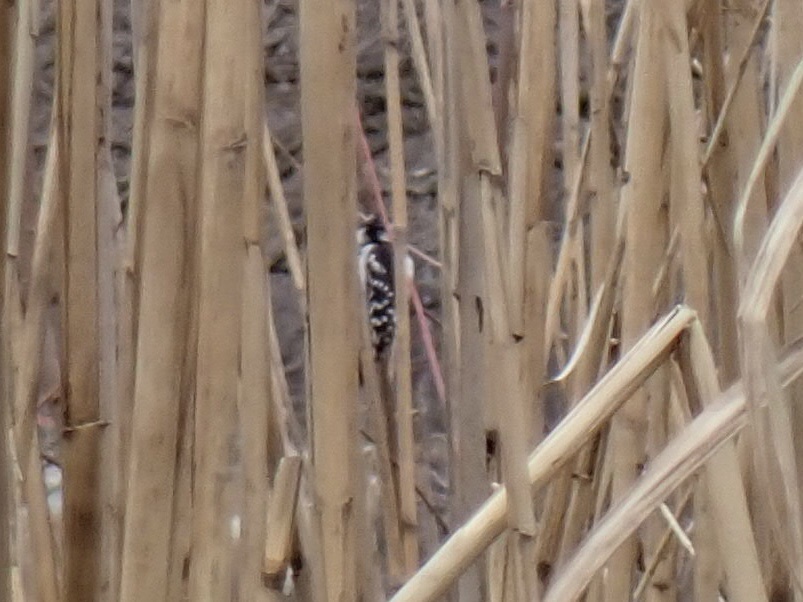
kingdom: Animalia
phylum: Chordata
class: Aves
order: Piciformes
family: Picidae
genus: Dryobates
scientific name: Dryobates pubescens
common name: Downy woodpecker
